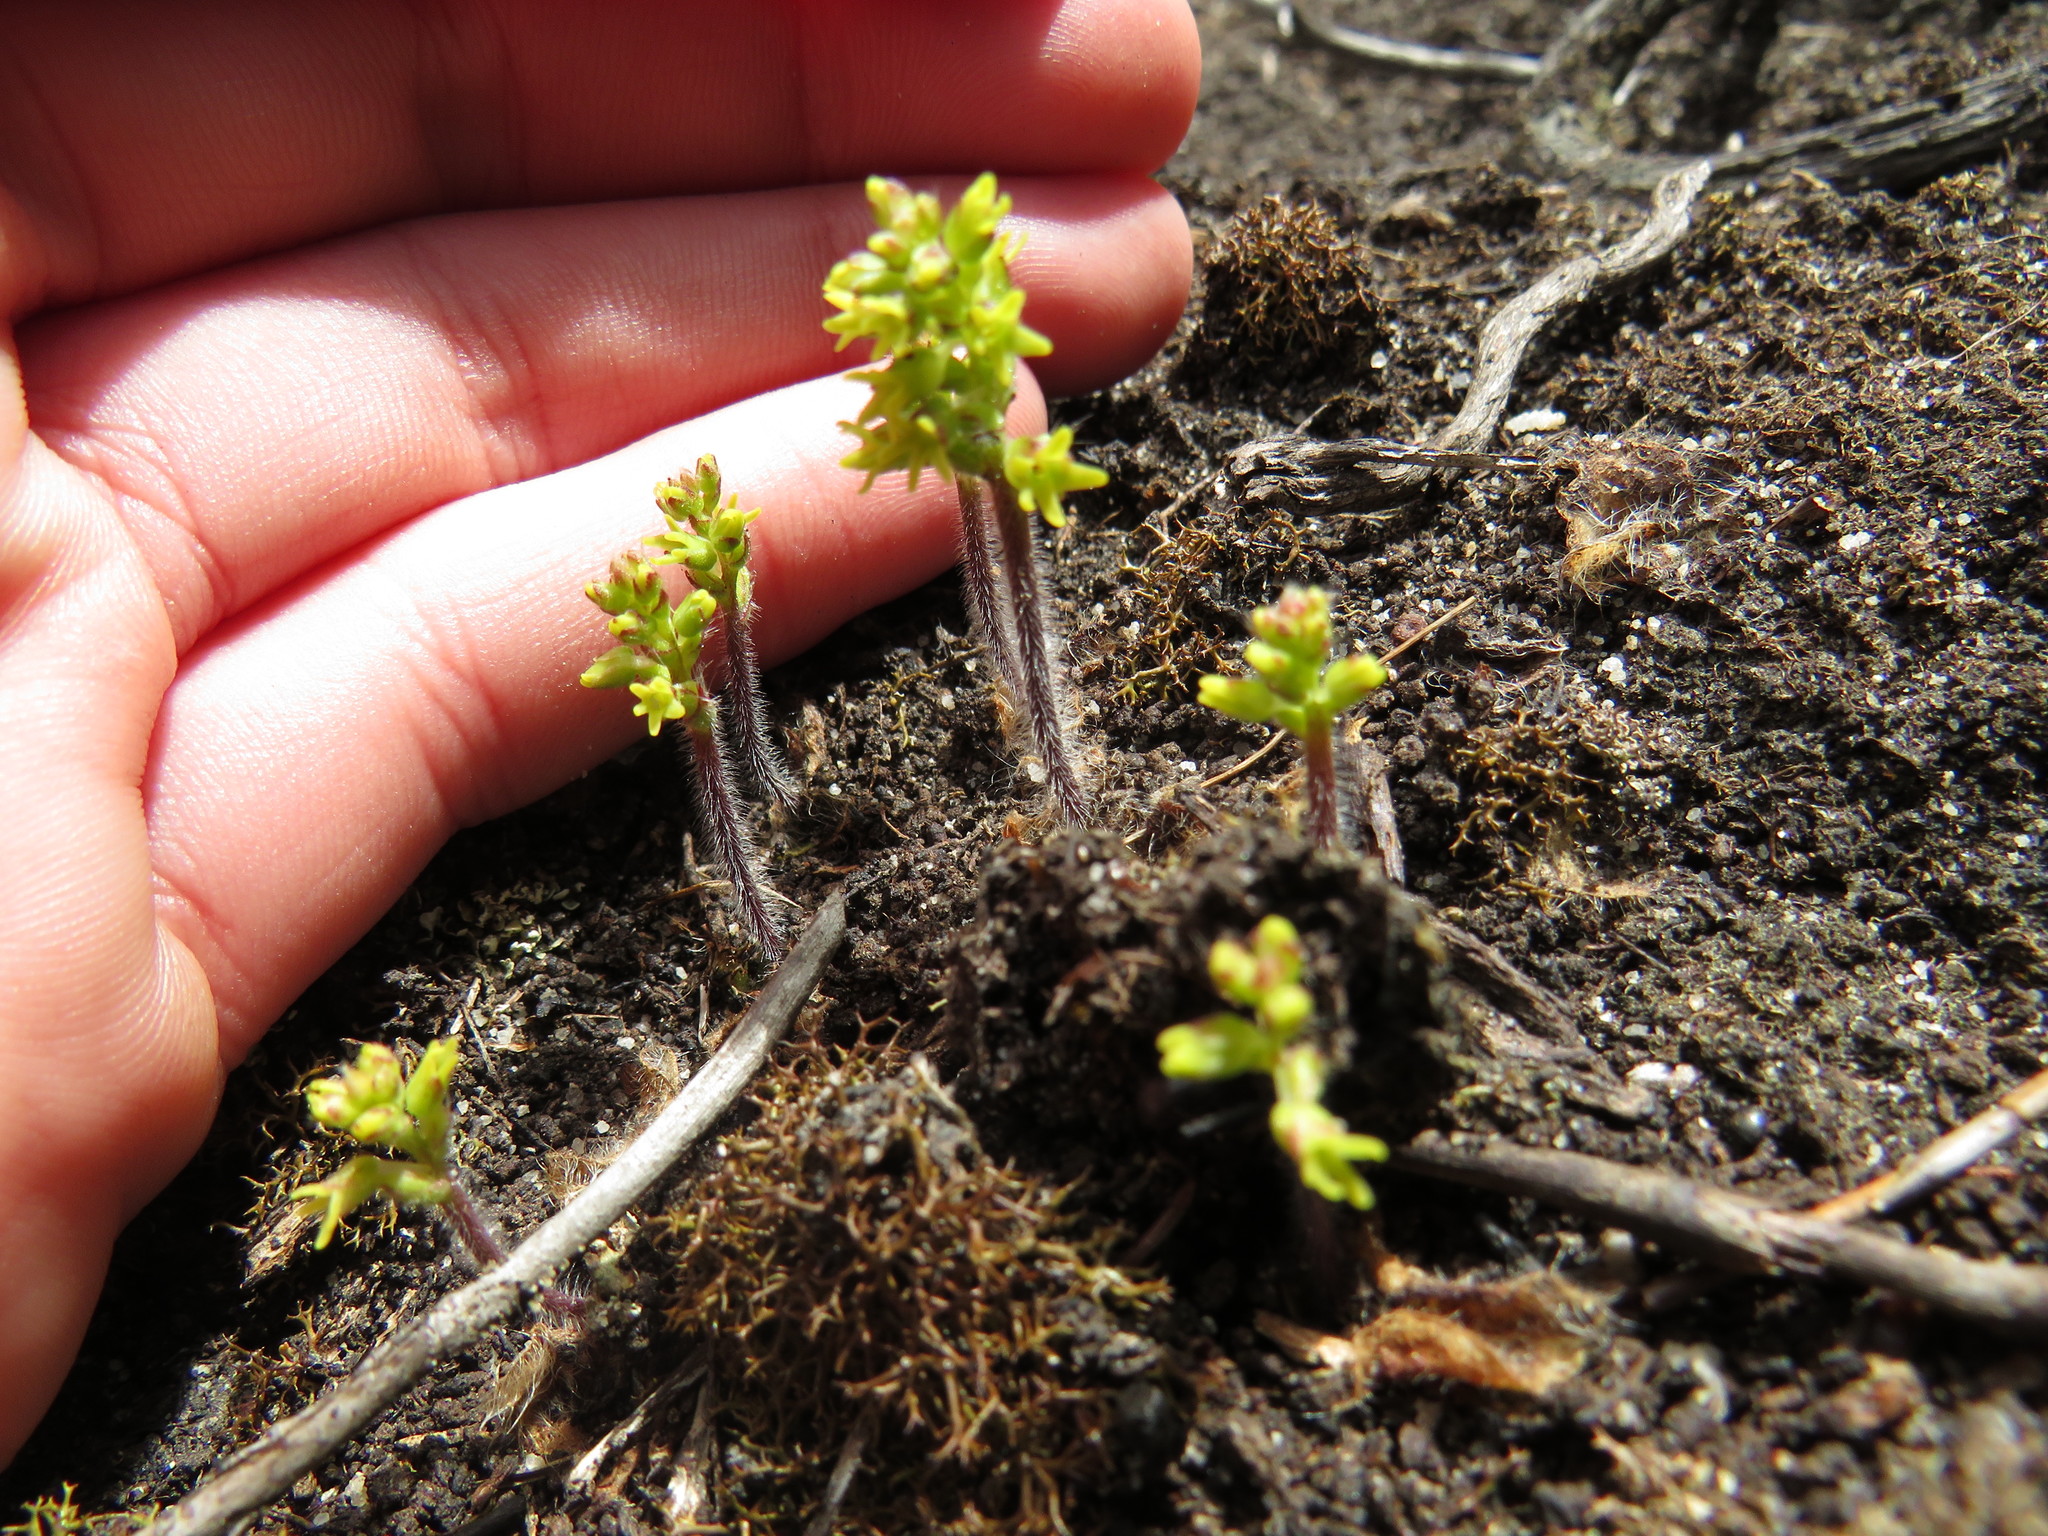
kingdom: Plantae
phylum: Tracheophyta
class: Liliopsida
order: Asparagales
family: Orchidaceae
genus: Holothrix
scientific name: Holothrix condensata
